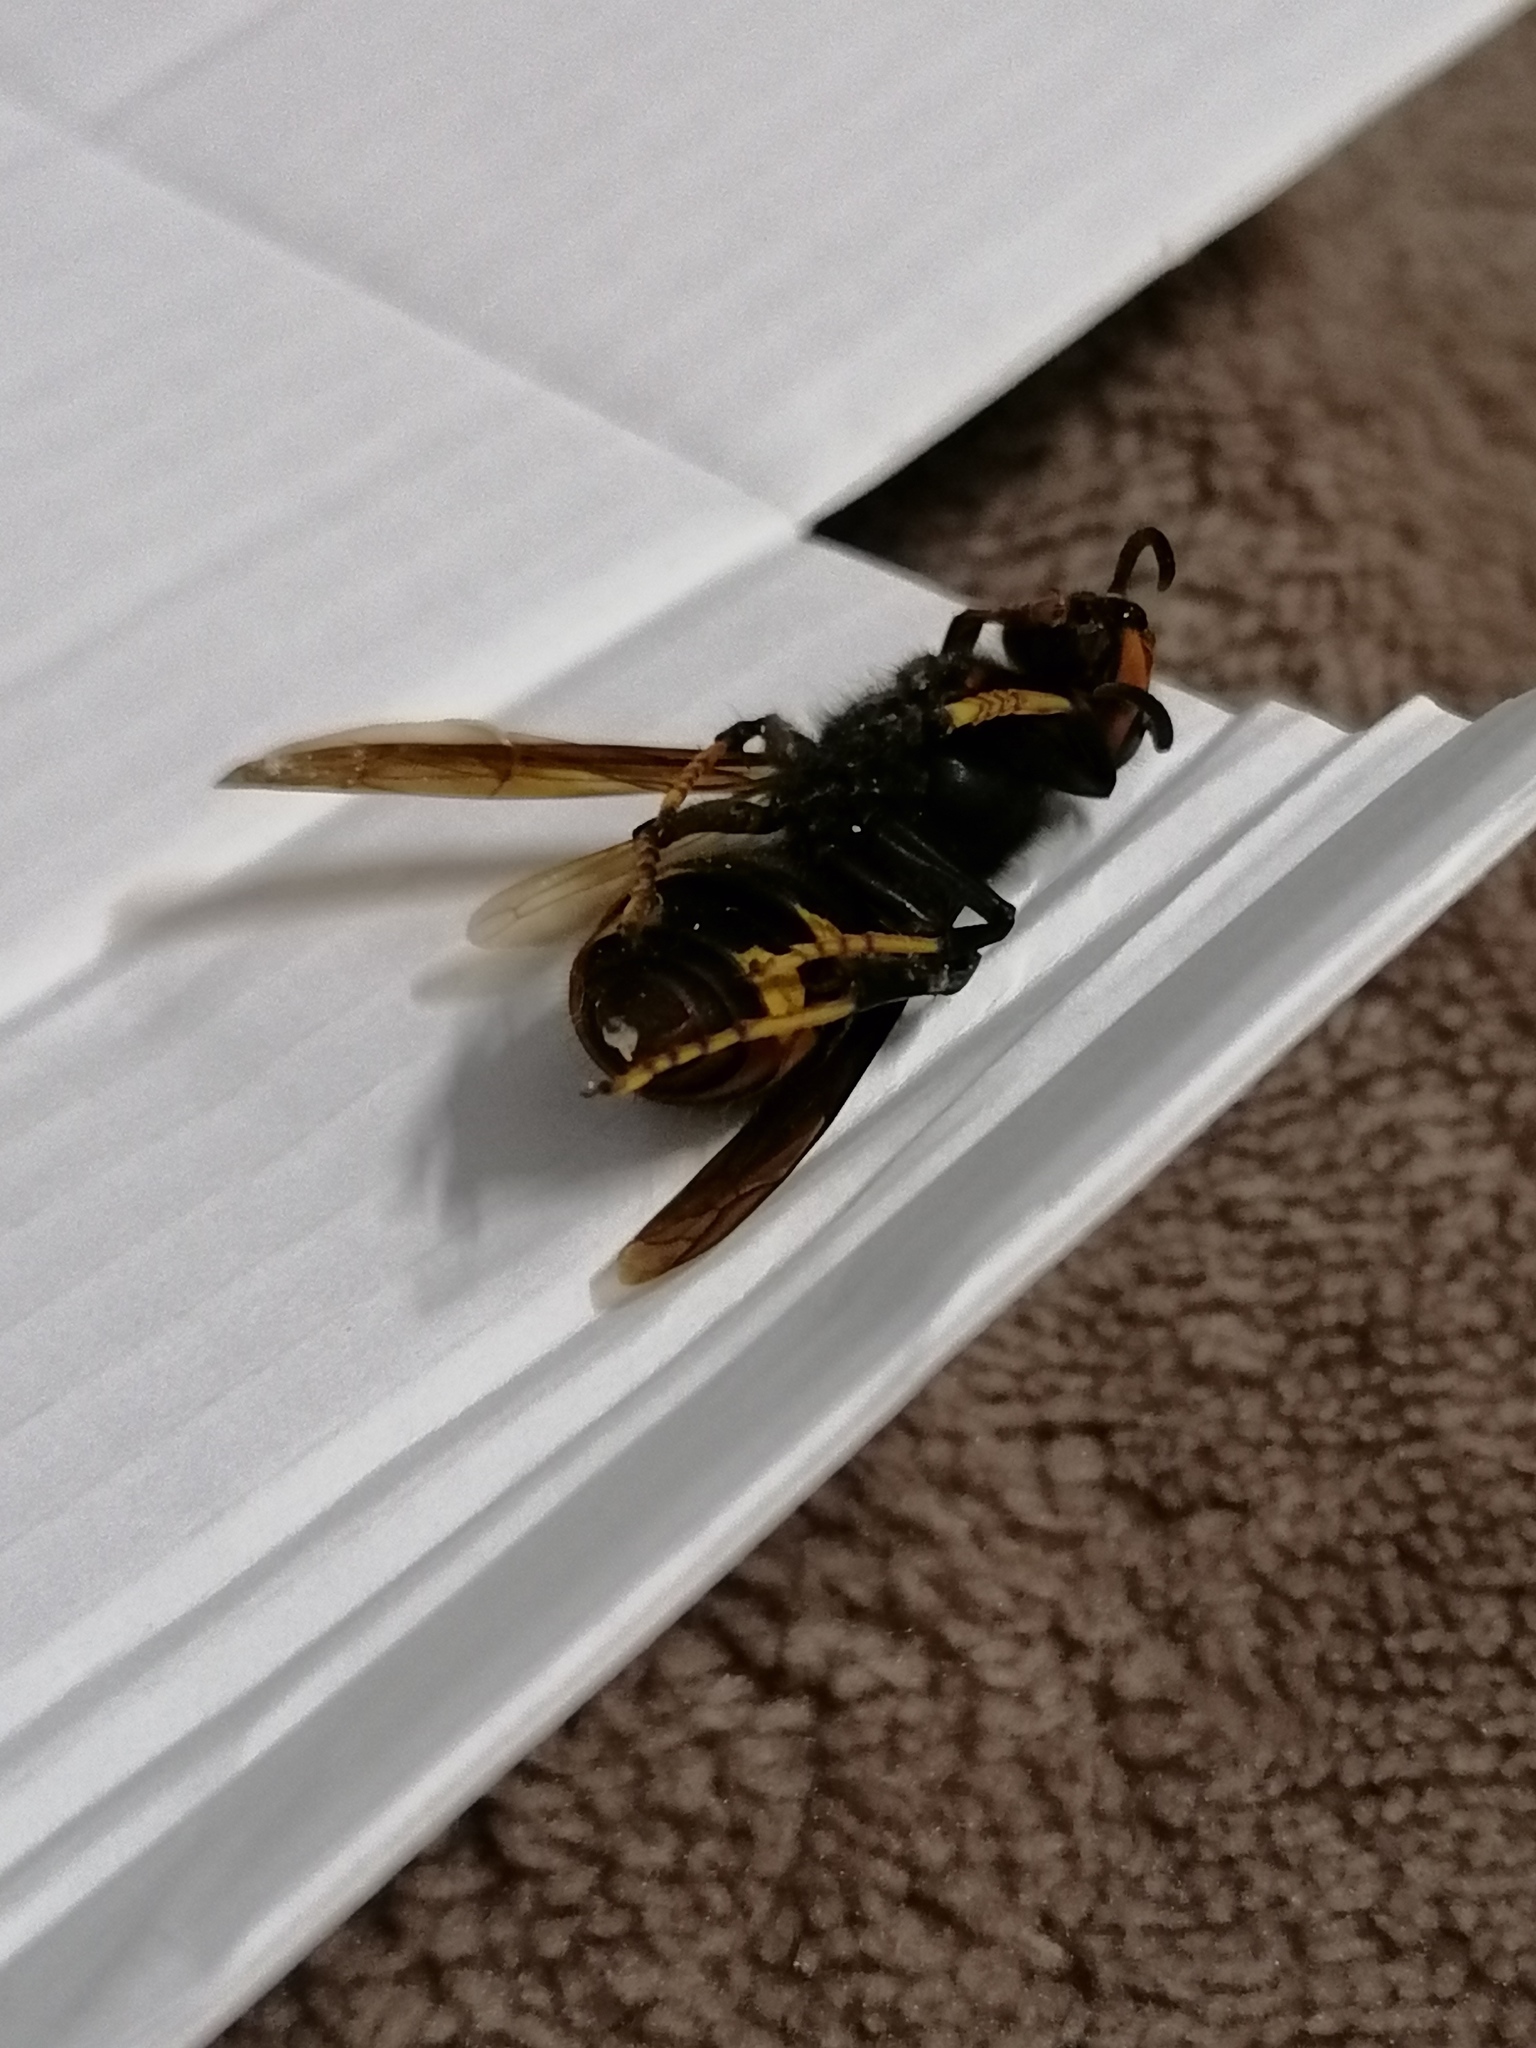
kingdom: Animalia
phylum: Arthropoda
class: Insecta
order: Hymenoptera
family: Vespidae
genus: Vespa
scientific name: Vespa velutina
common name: Asian hornet
